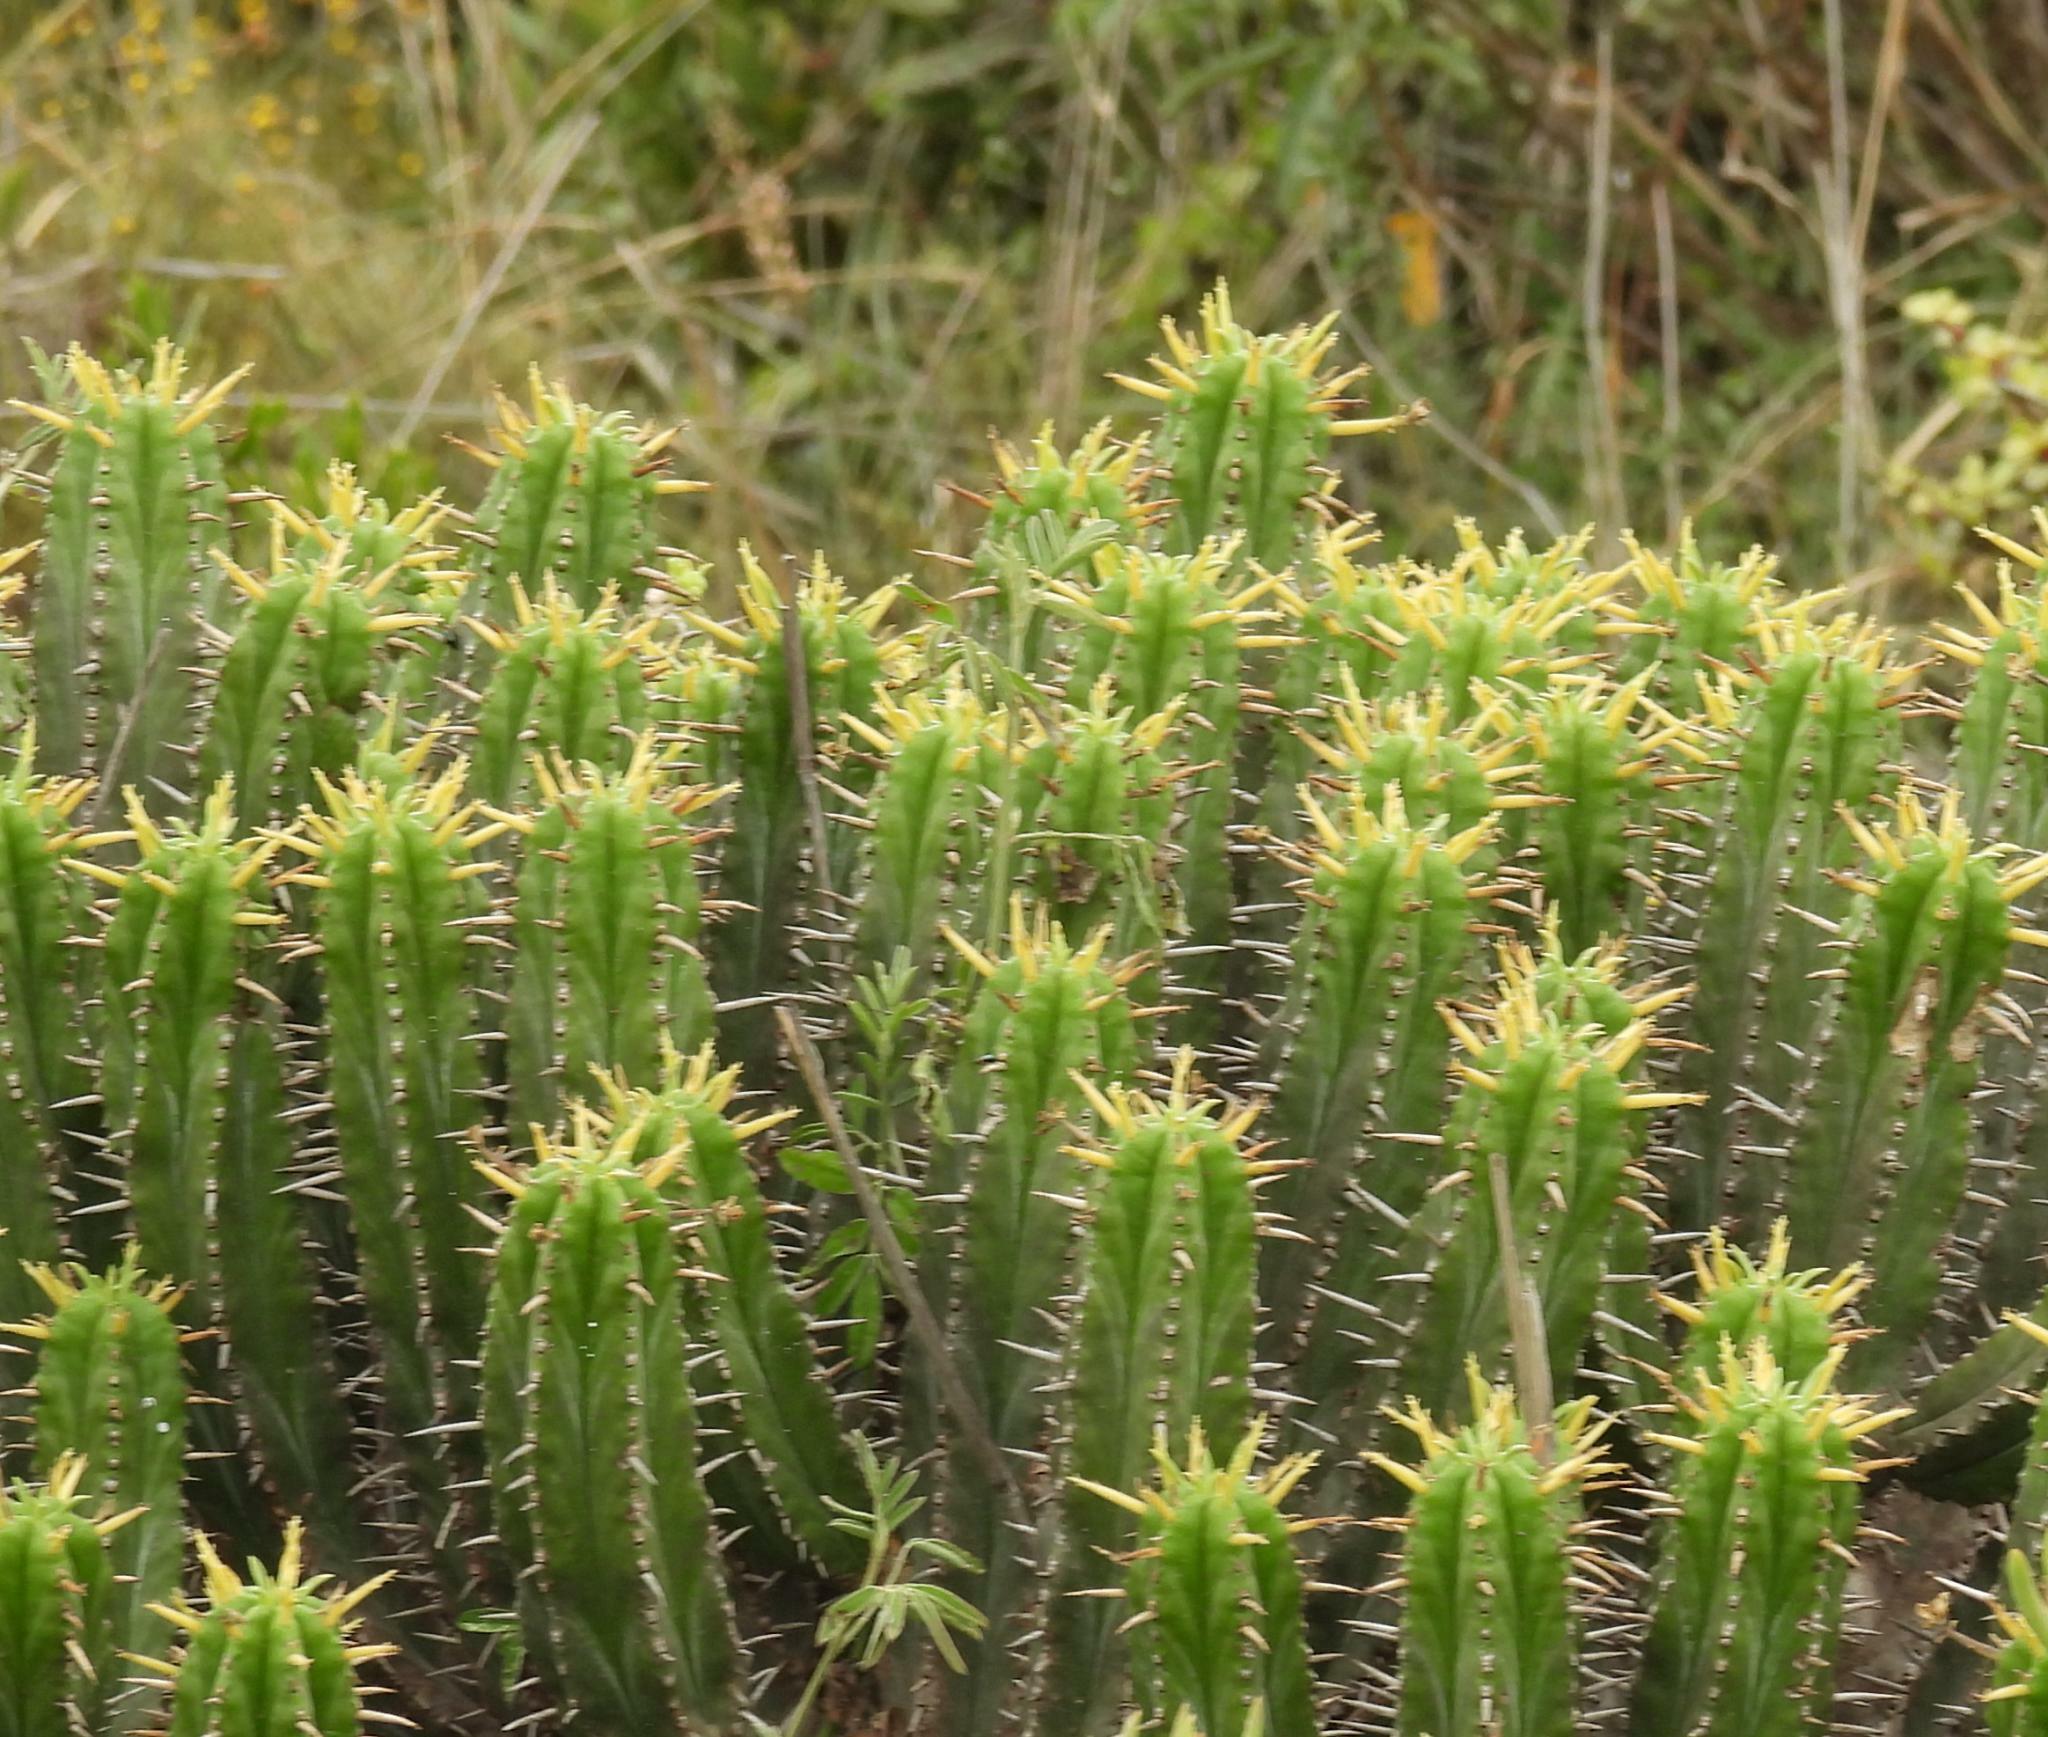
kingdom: Plantae
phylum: Tracheophyta
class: Magnoliopsida
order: Malpighiales
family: Euphorbiaceae
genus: Euphorbia
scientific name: Euphorbia pentagona
